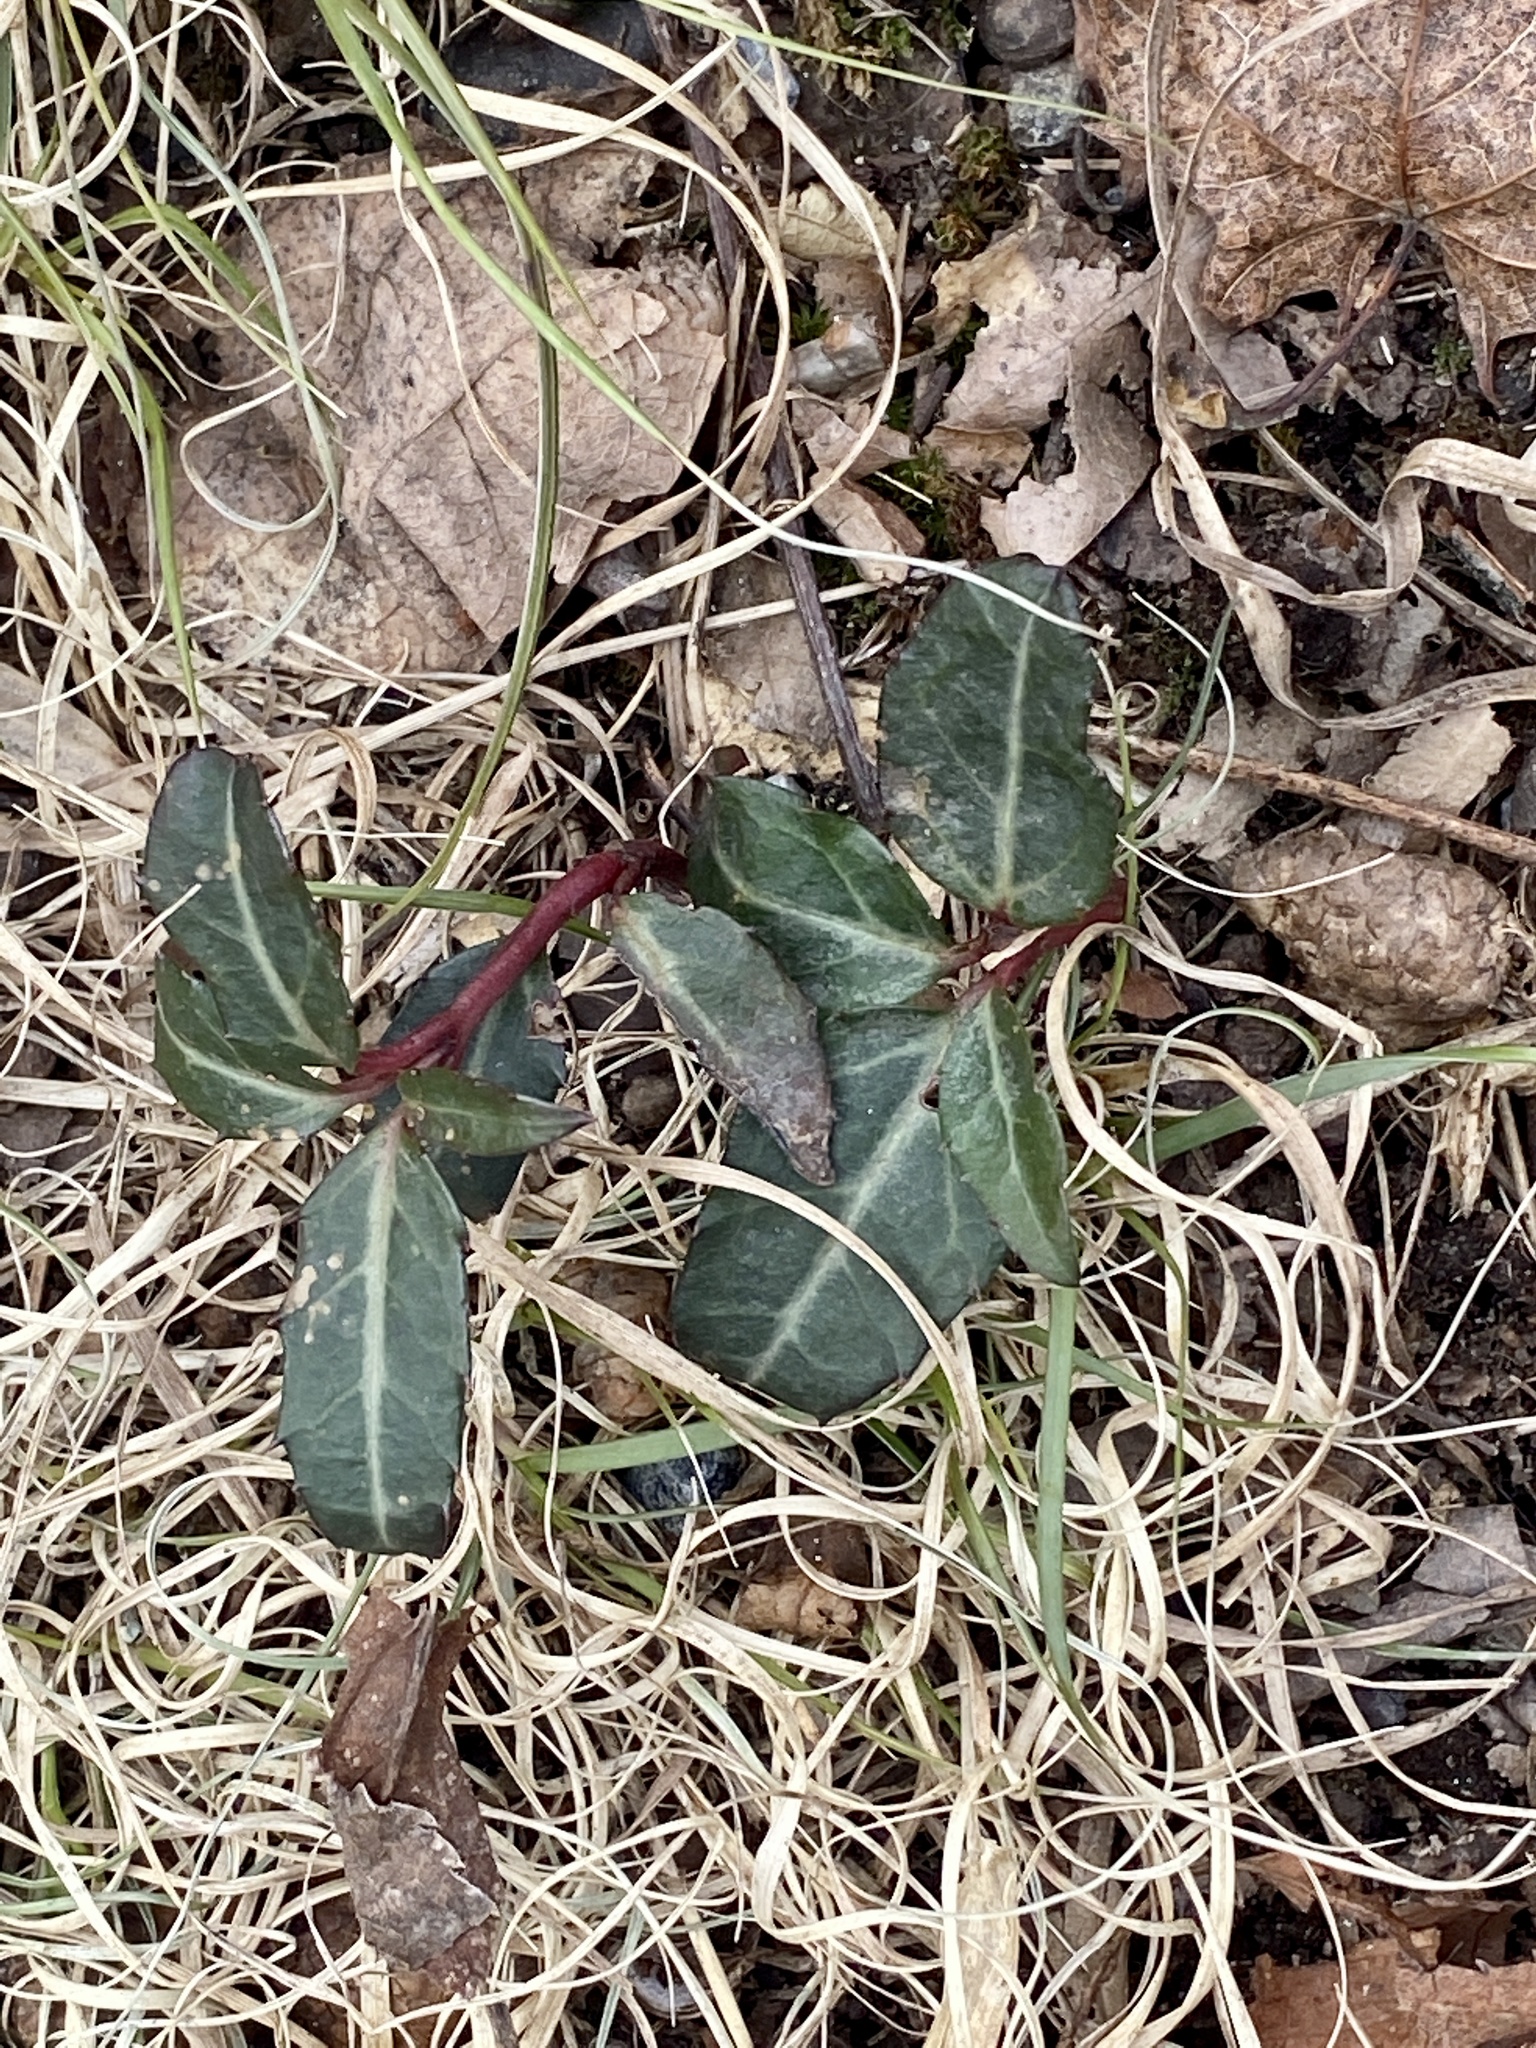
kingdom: Plantae
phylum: Tracheophyta
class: Magnoliopsida
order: Ericales
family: Ericaceae
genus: Chimaphila
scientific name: Chimaphila maculata
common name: Spotted pipsissewa
